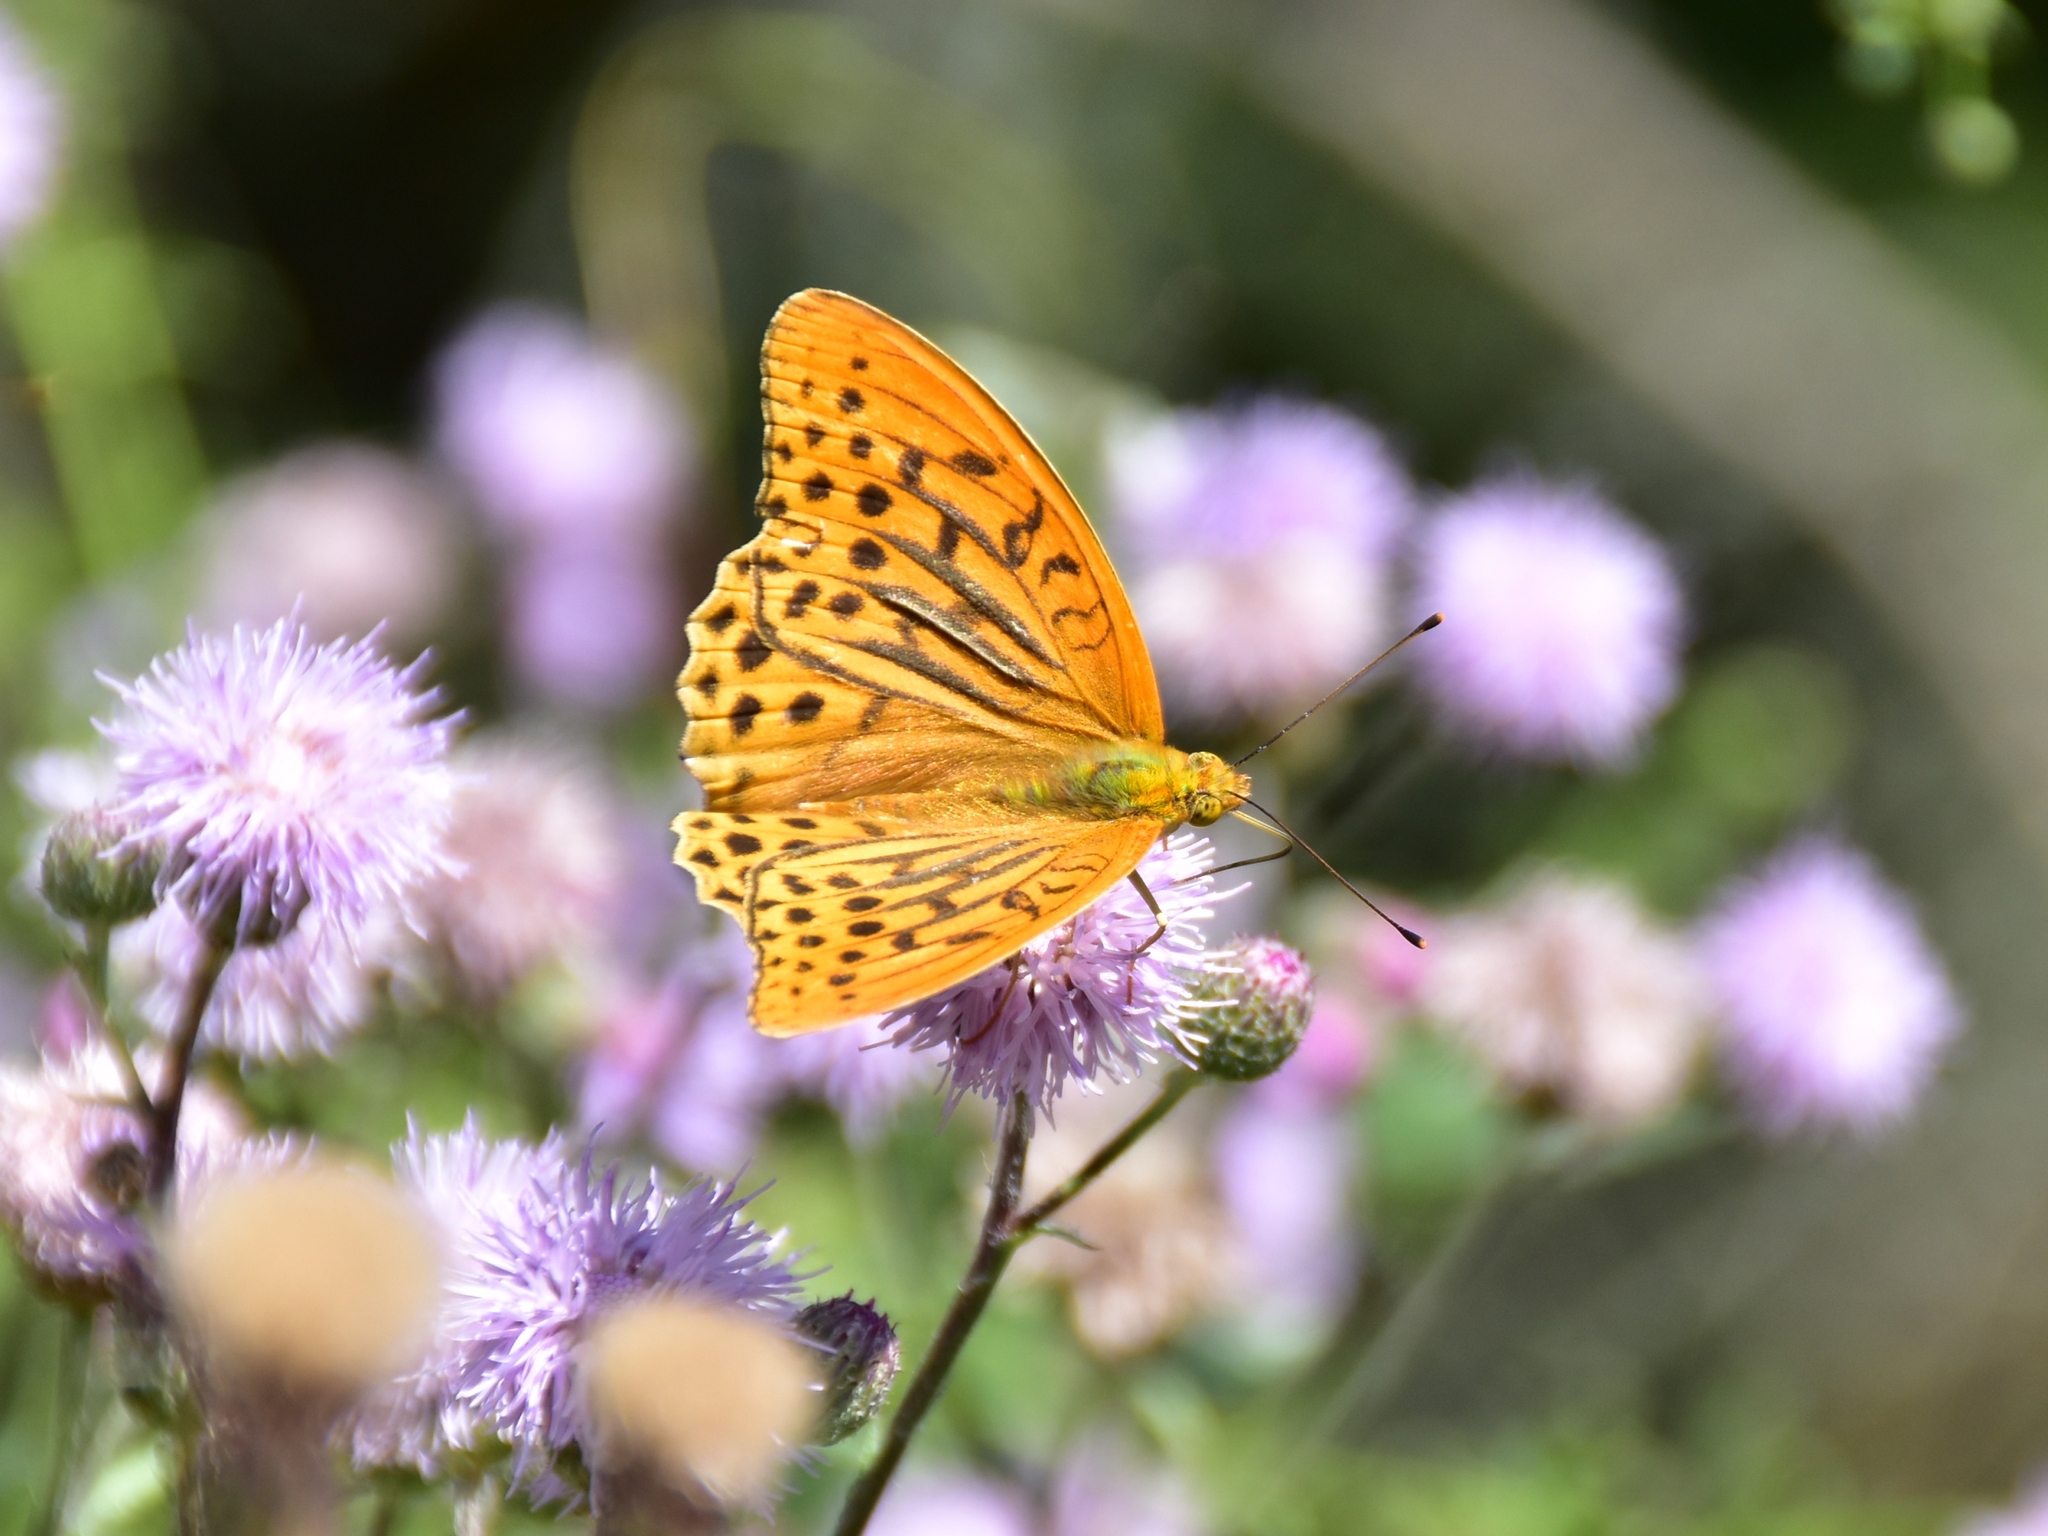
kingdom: Animalia
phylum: Arthropoda
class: Insecta
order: Lepidoptera
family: Nymphalidae
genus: Argynnis
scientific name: Argynnis paphia
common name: Silver-washed fritillary
